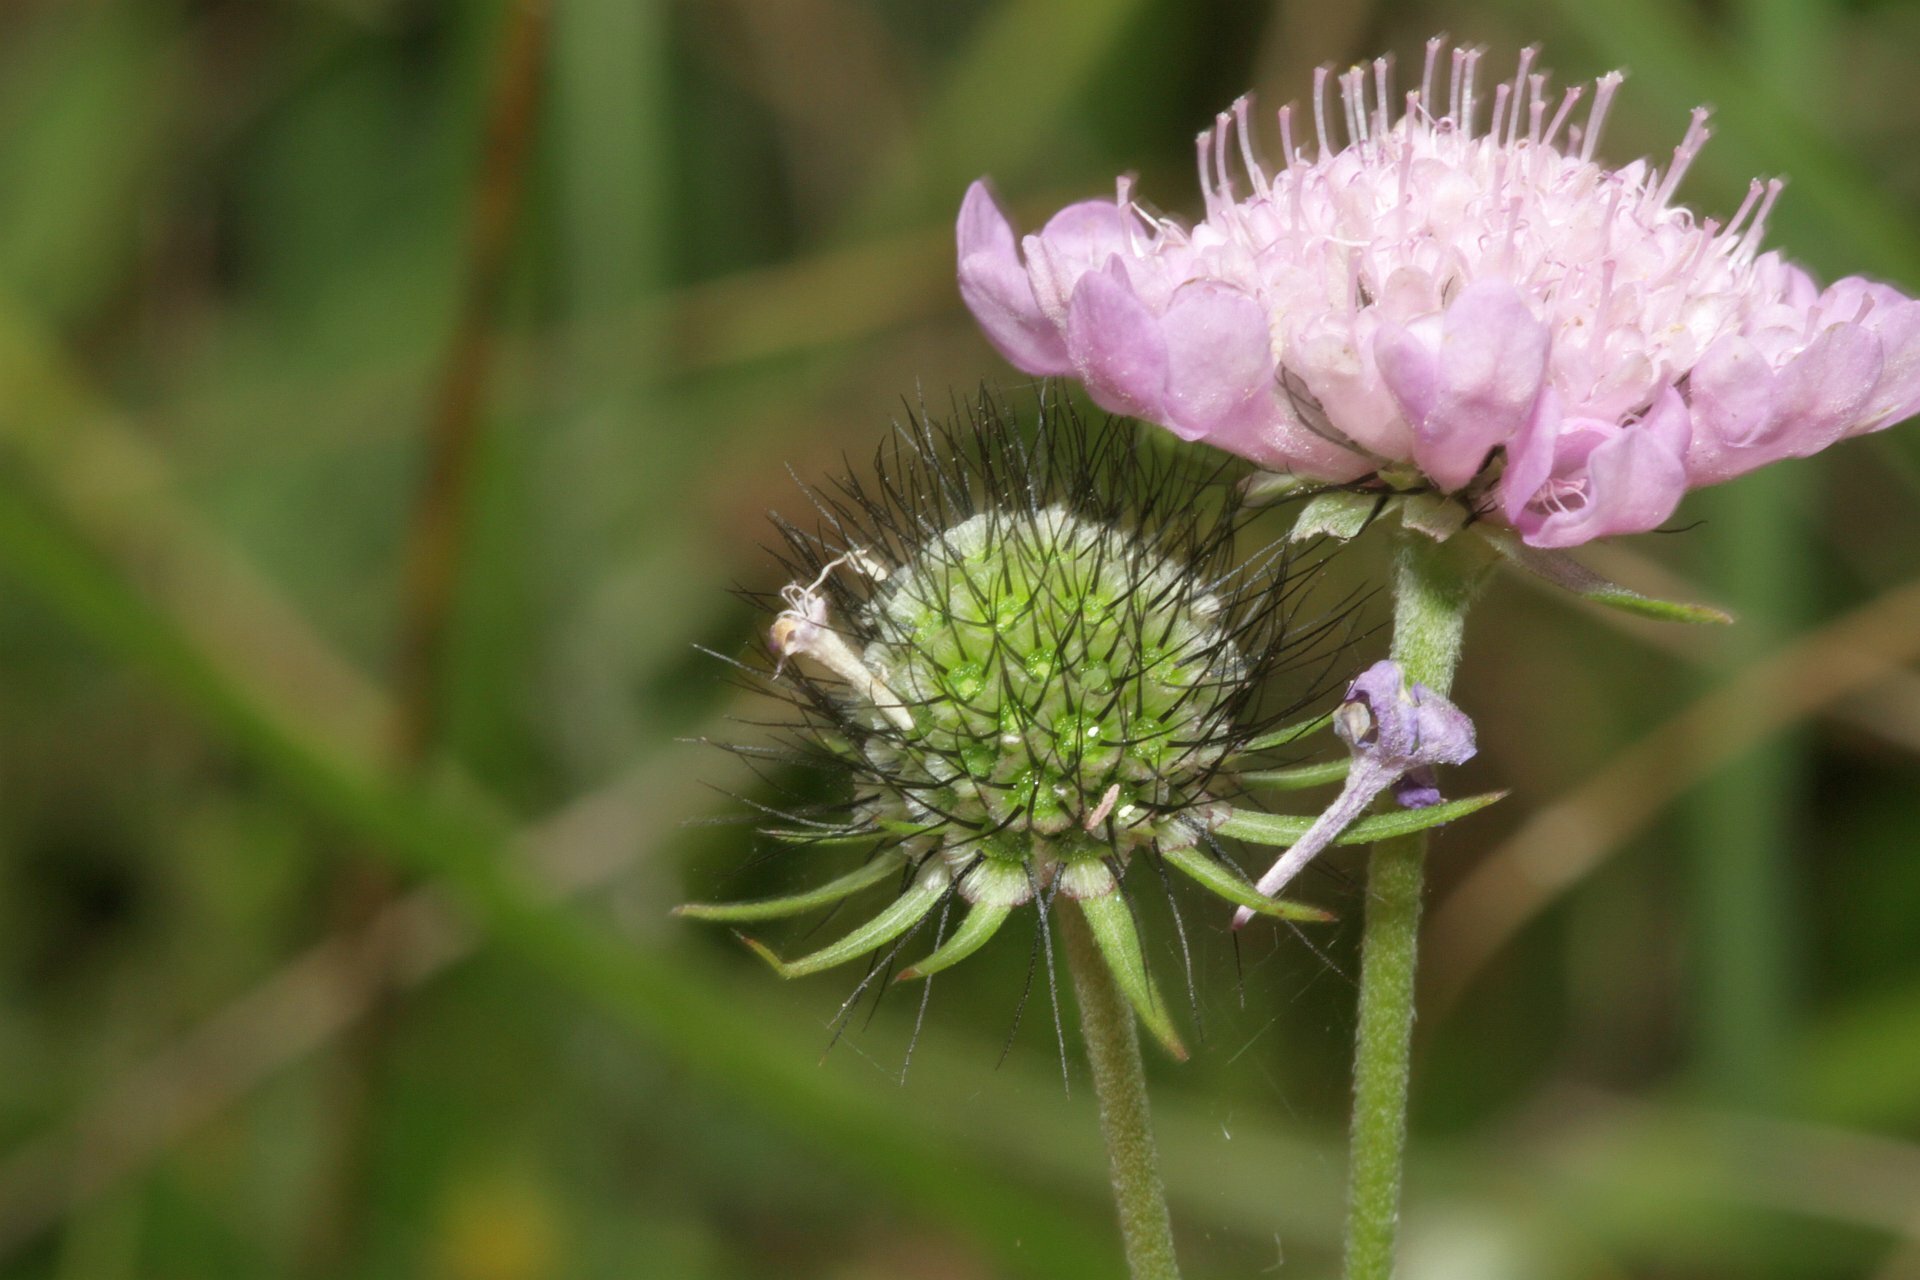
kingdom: Plantae
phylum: Tracheophyta
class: Magnoliopsida
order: Dipsacales
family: Caprifoliaceae
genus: Scabiosa
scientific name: Scabiosa columbaria
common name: Small scabious
